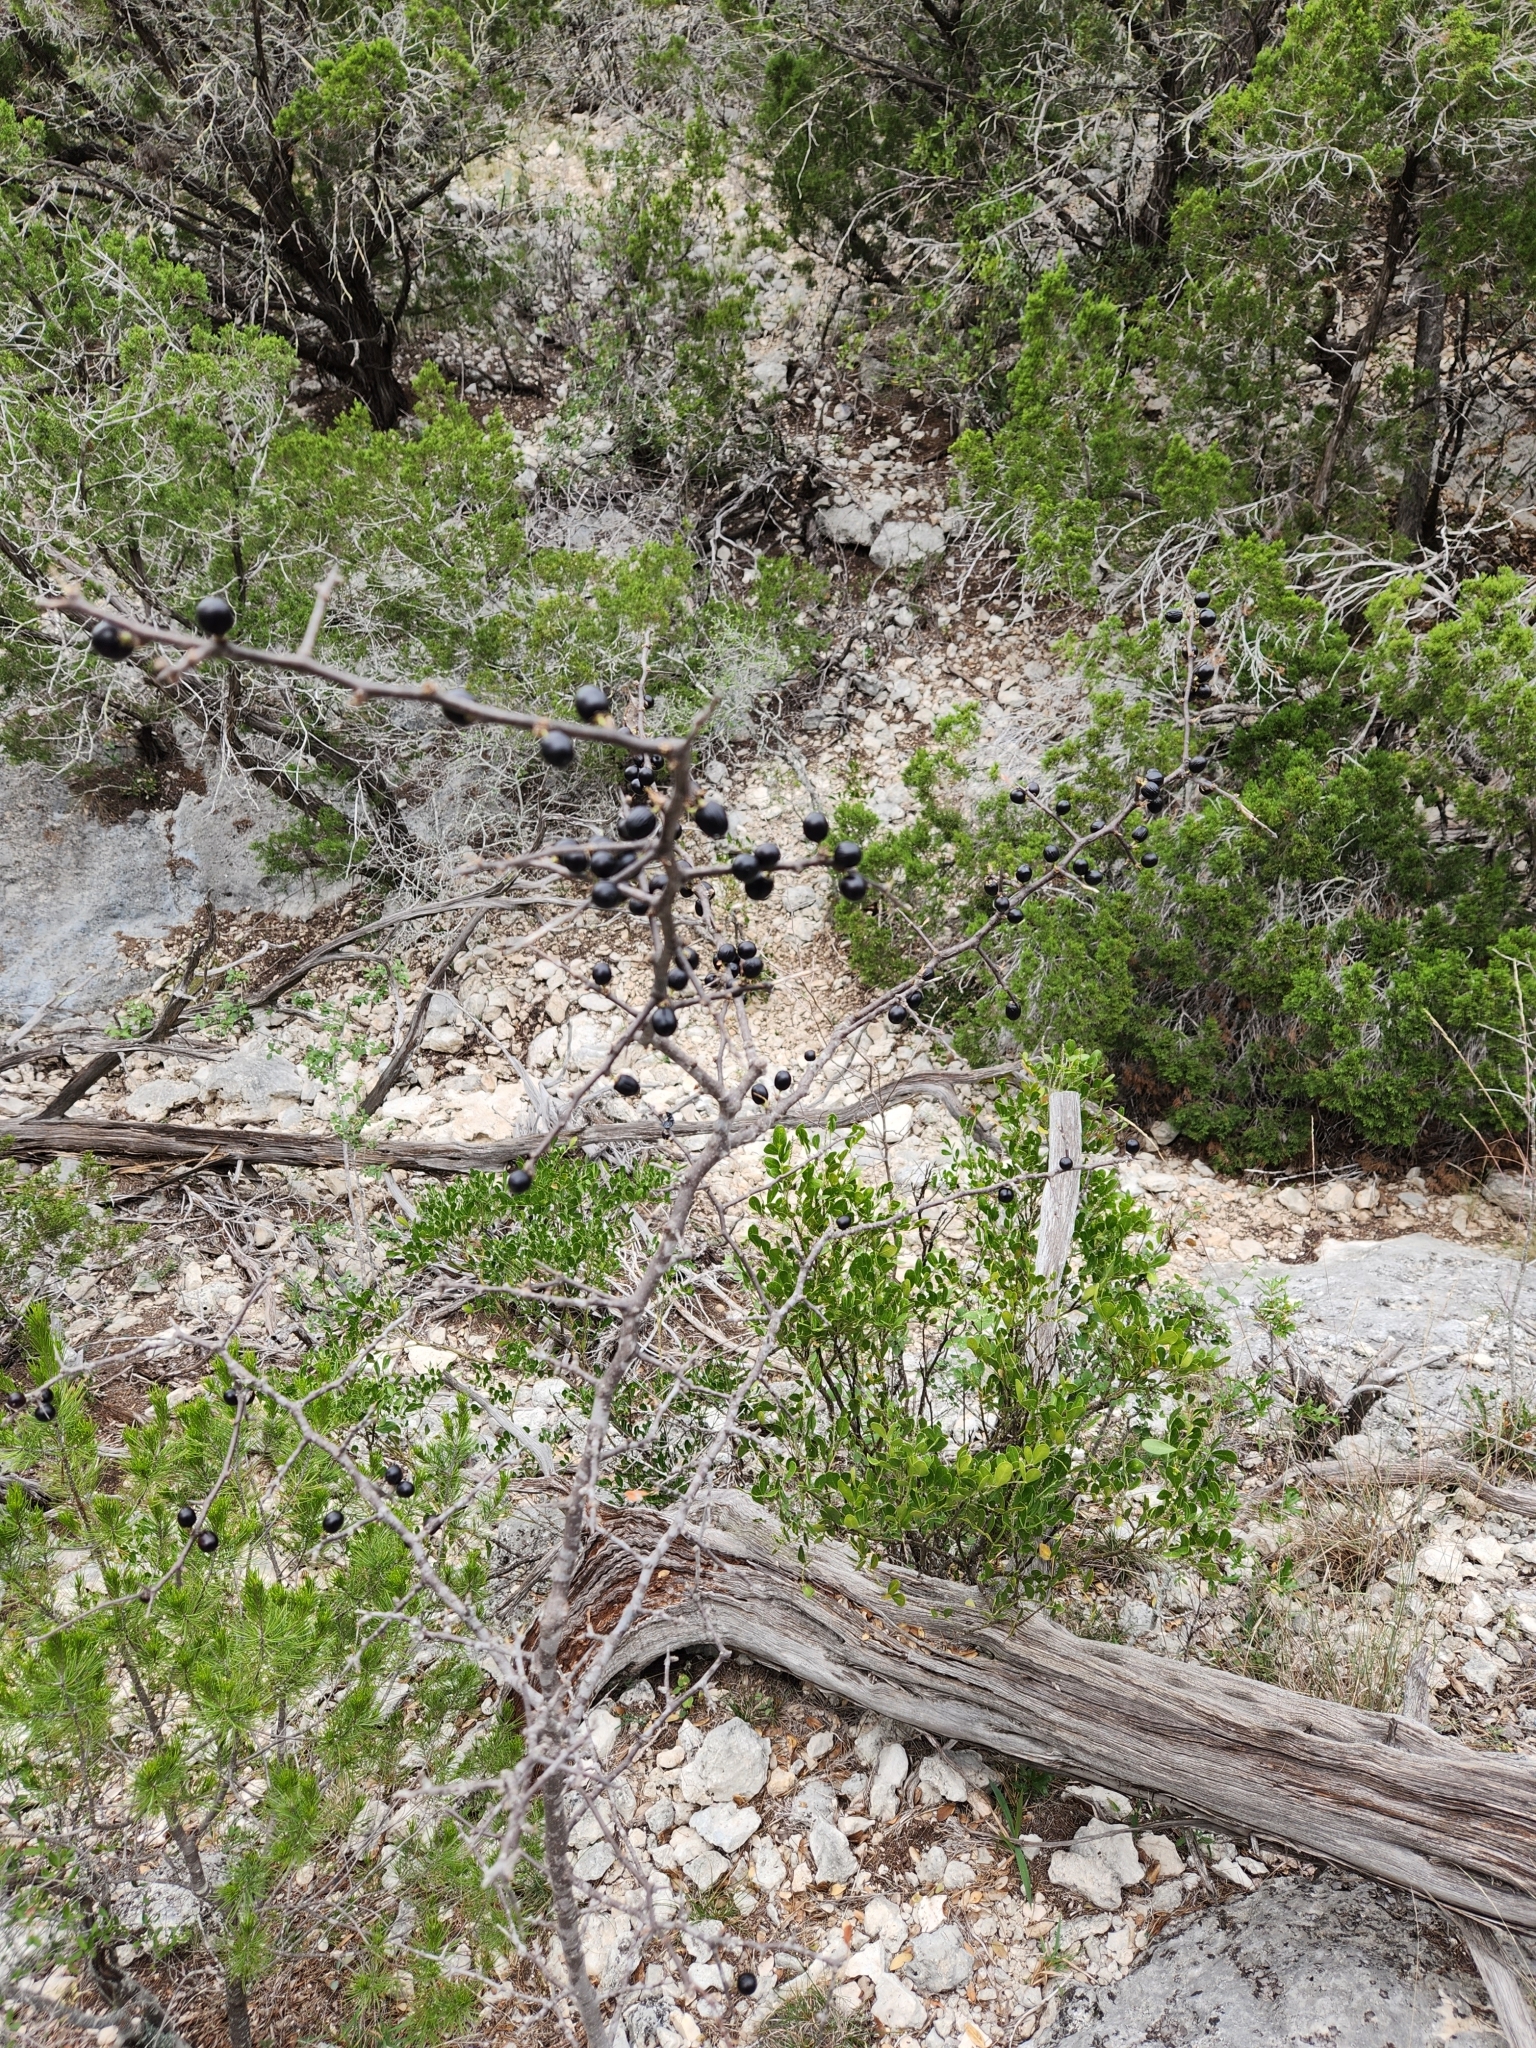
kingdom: Plantae
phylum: Tracheophyta
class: Magnoliopsida
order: Ericales
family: Sapotaceae
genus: Sideroxylon
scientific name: Sideroxylon lanuginosum
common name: Chittamwood
